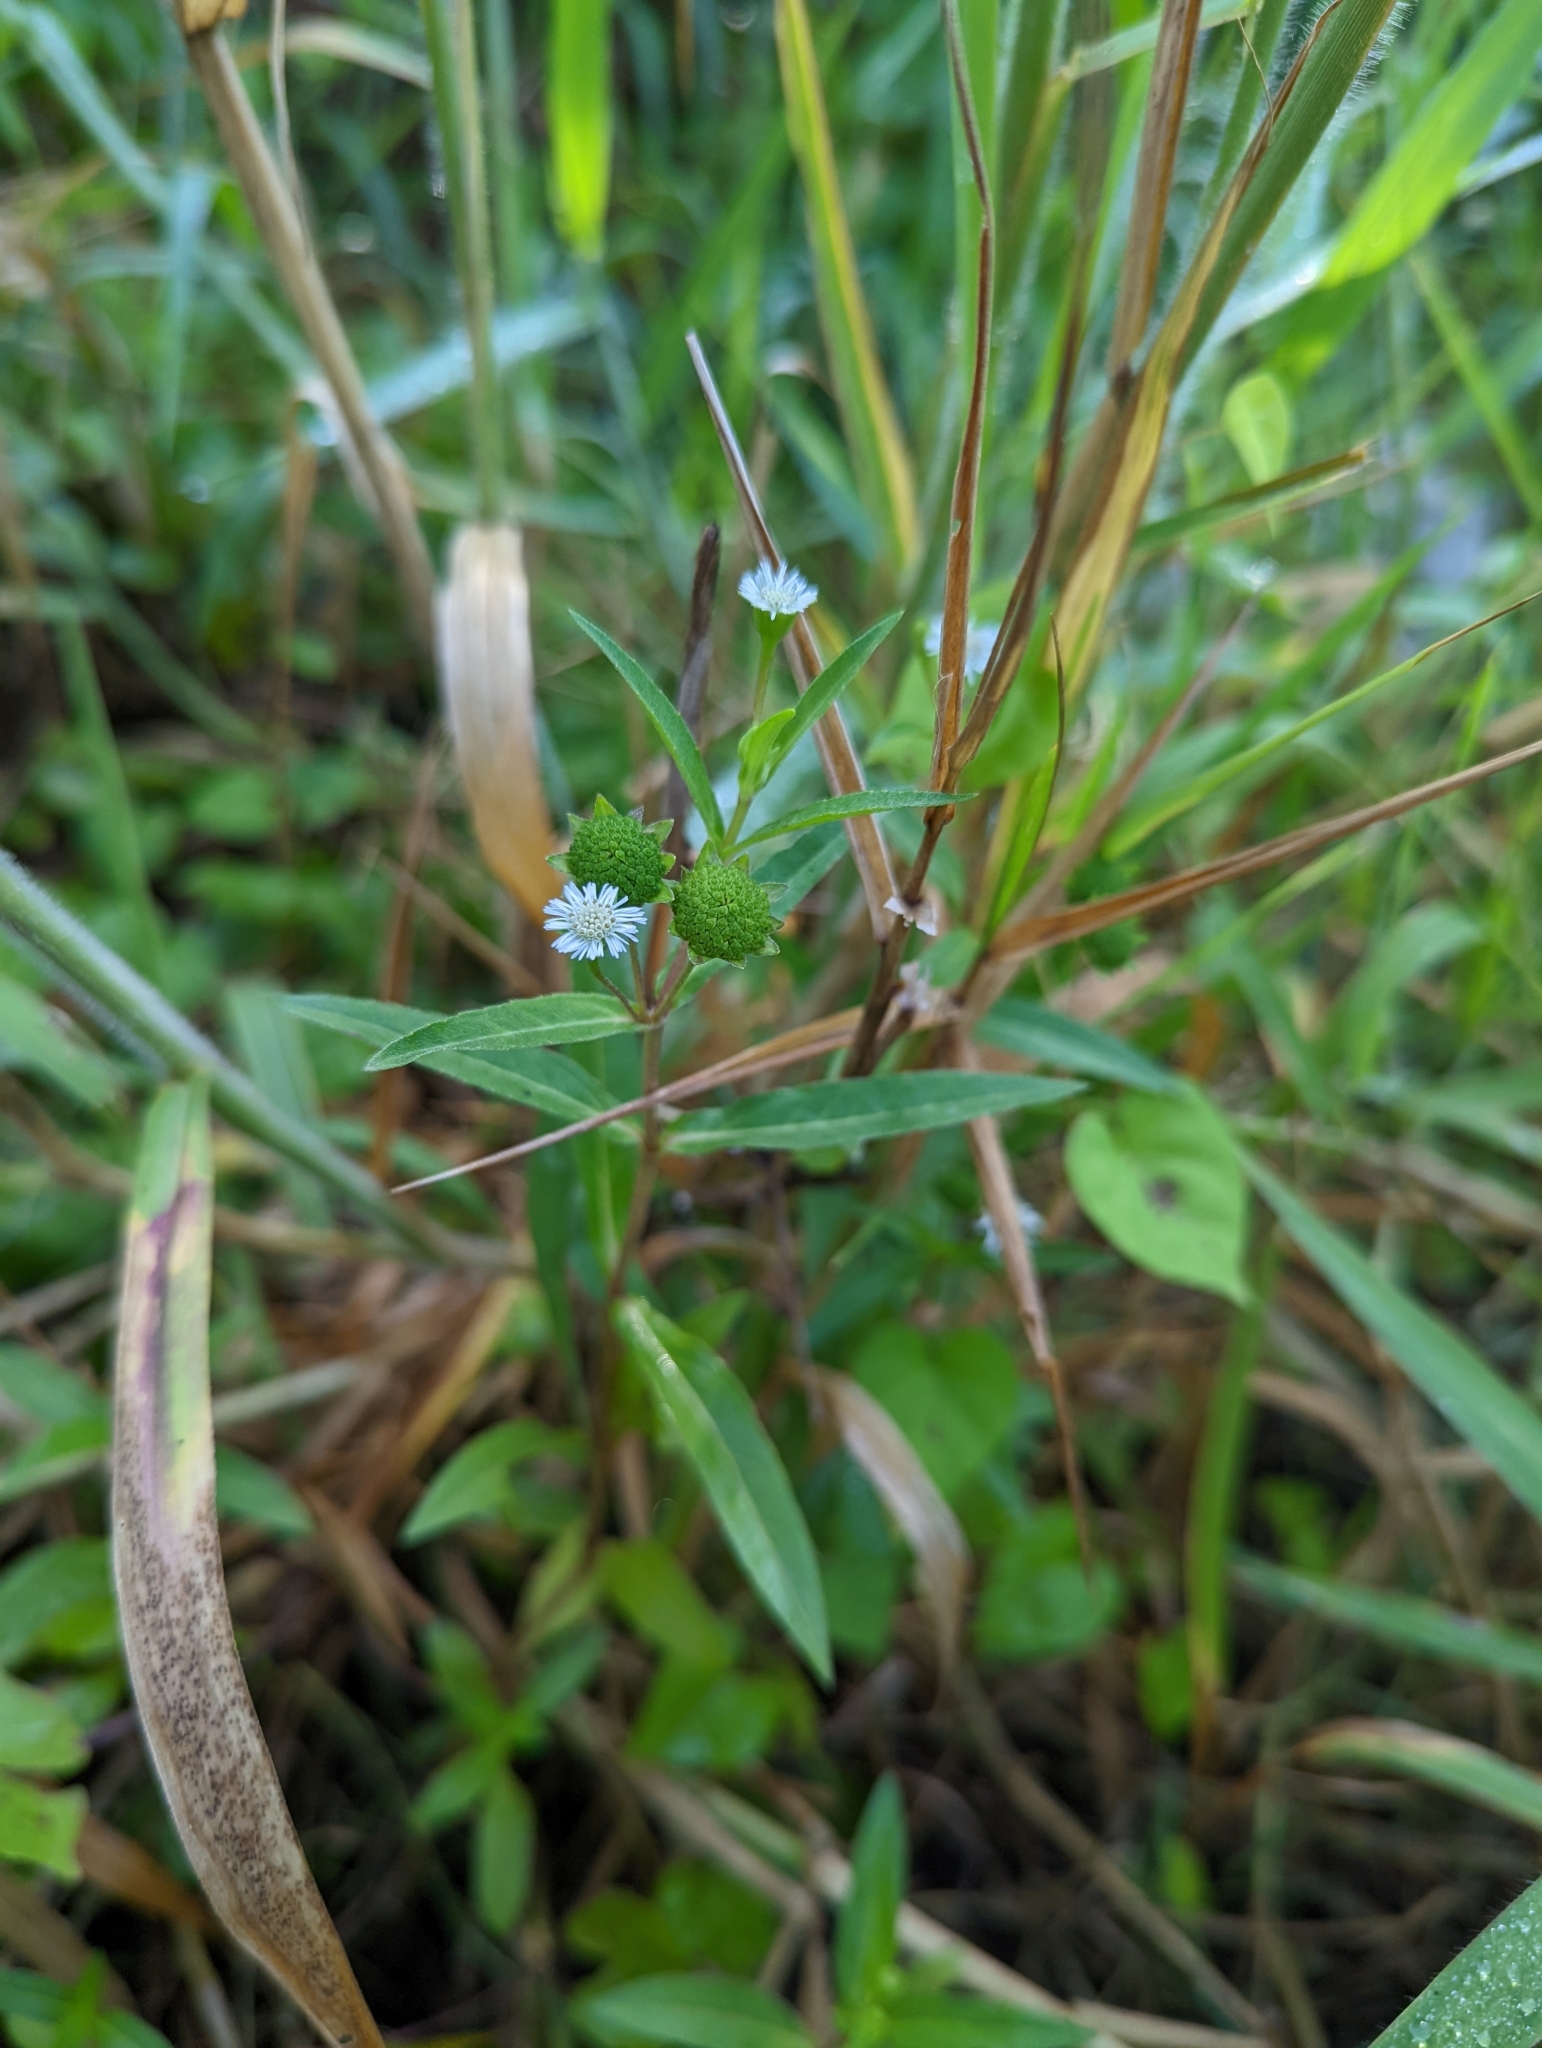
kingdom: Plantae
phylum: Tracheophyta
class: Magnoliopsida
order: Asterales
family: Asteraceae
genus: Eclipta
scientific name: Eclipta prostrata
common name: False daisy
